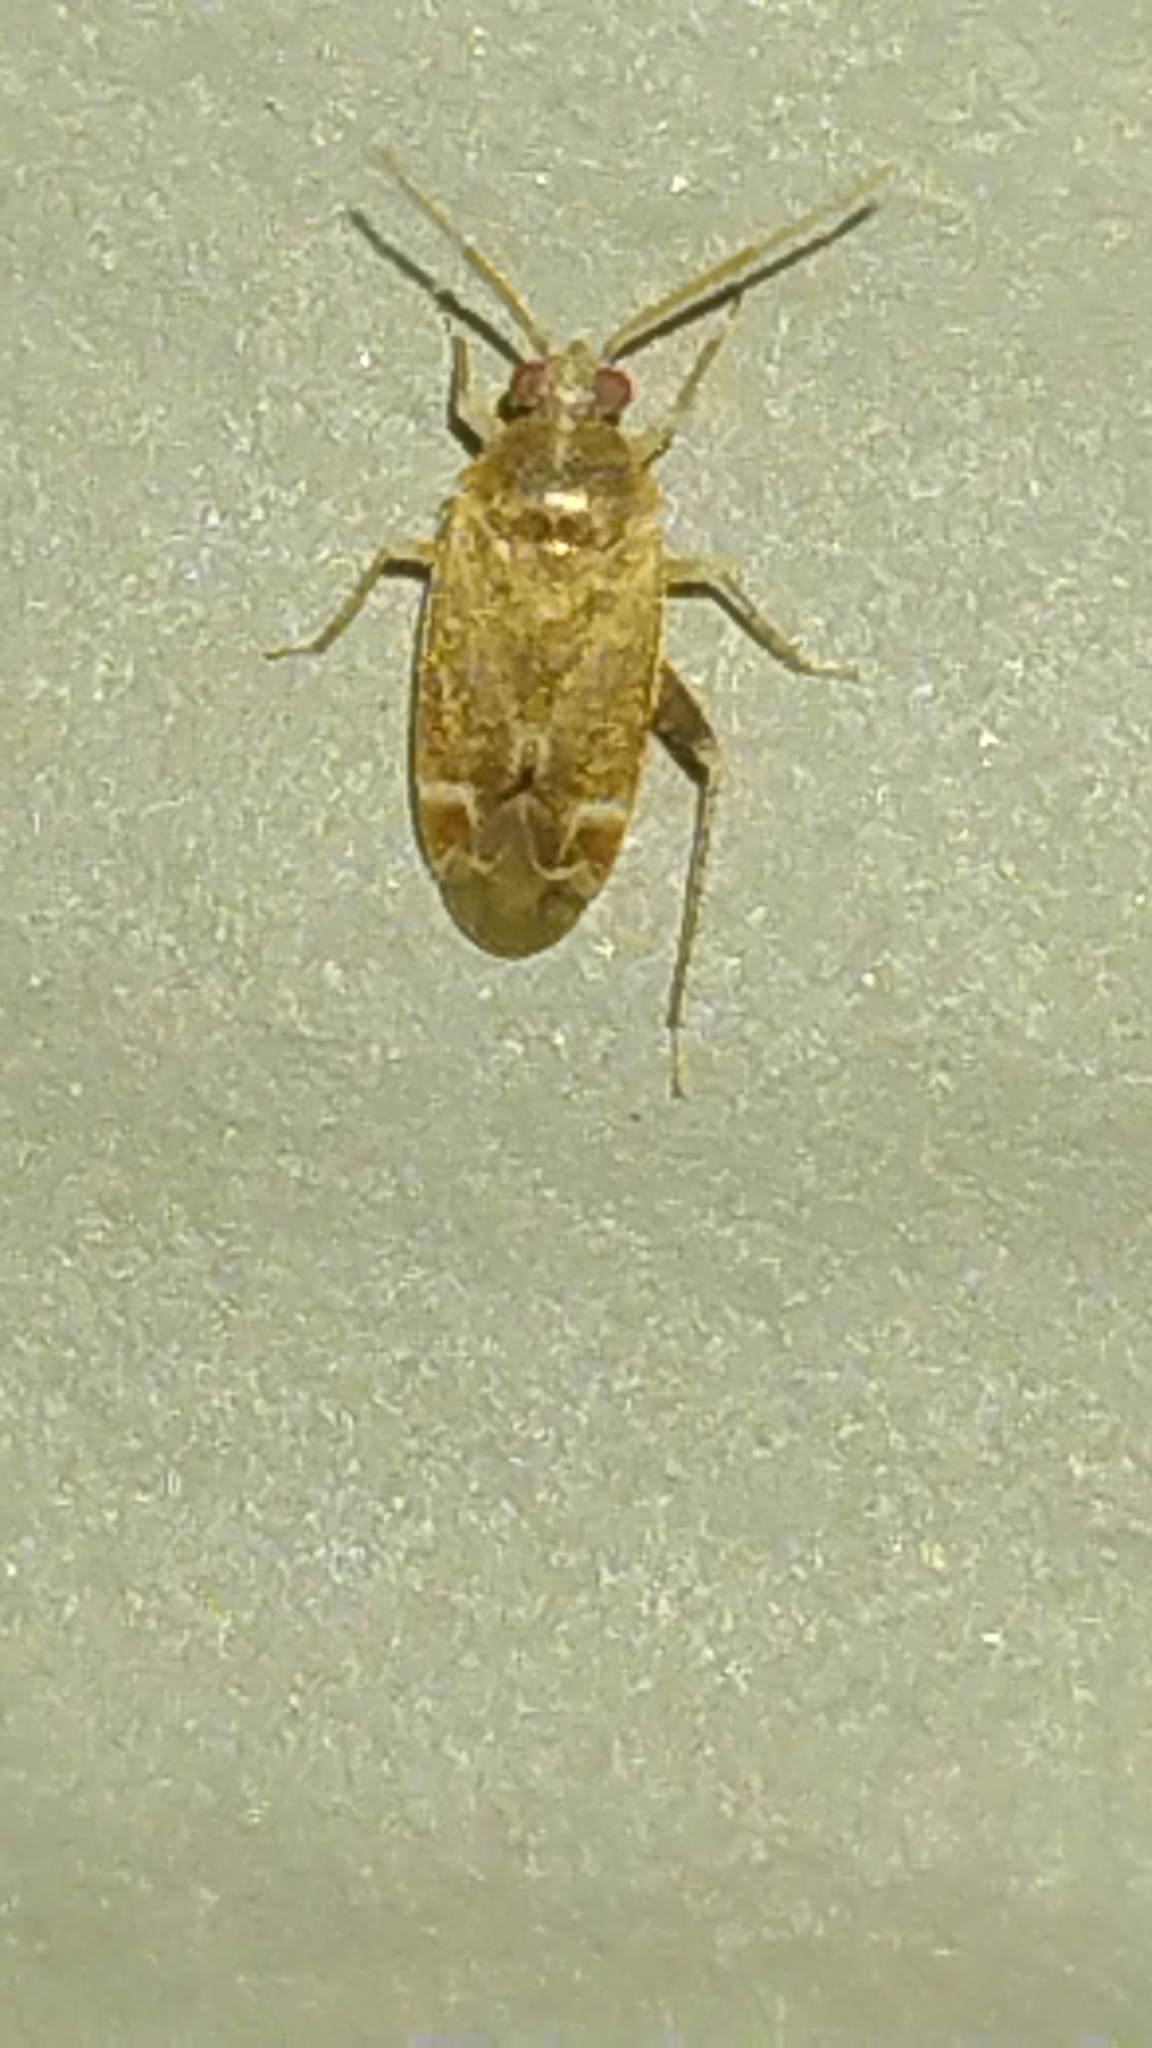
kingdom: Animalia
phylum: Arthropoda
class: Insecta
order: Hemiptera
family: Miridae
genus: Hamatophylus
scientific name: Hamatophylus guttulosus
